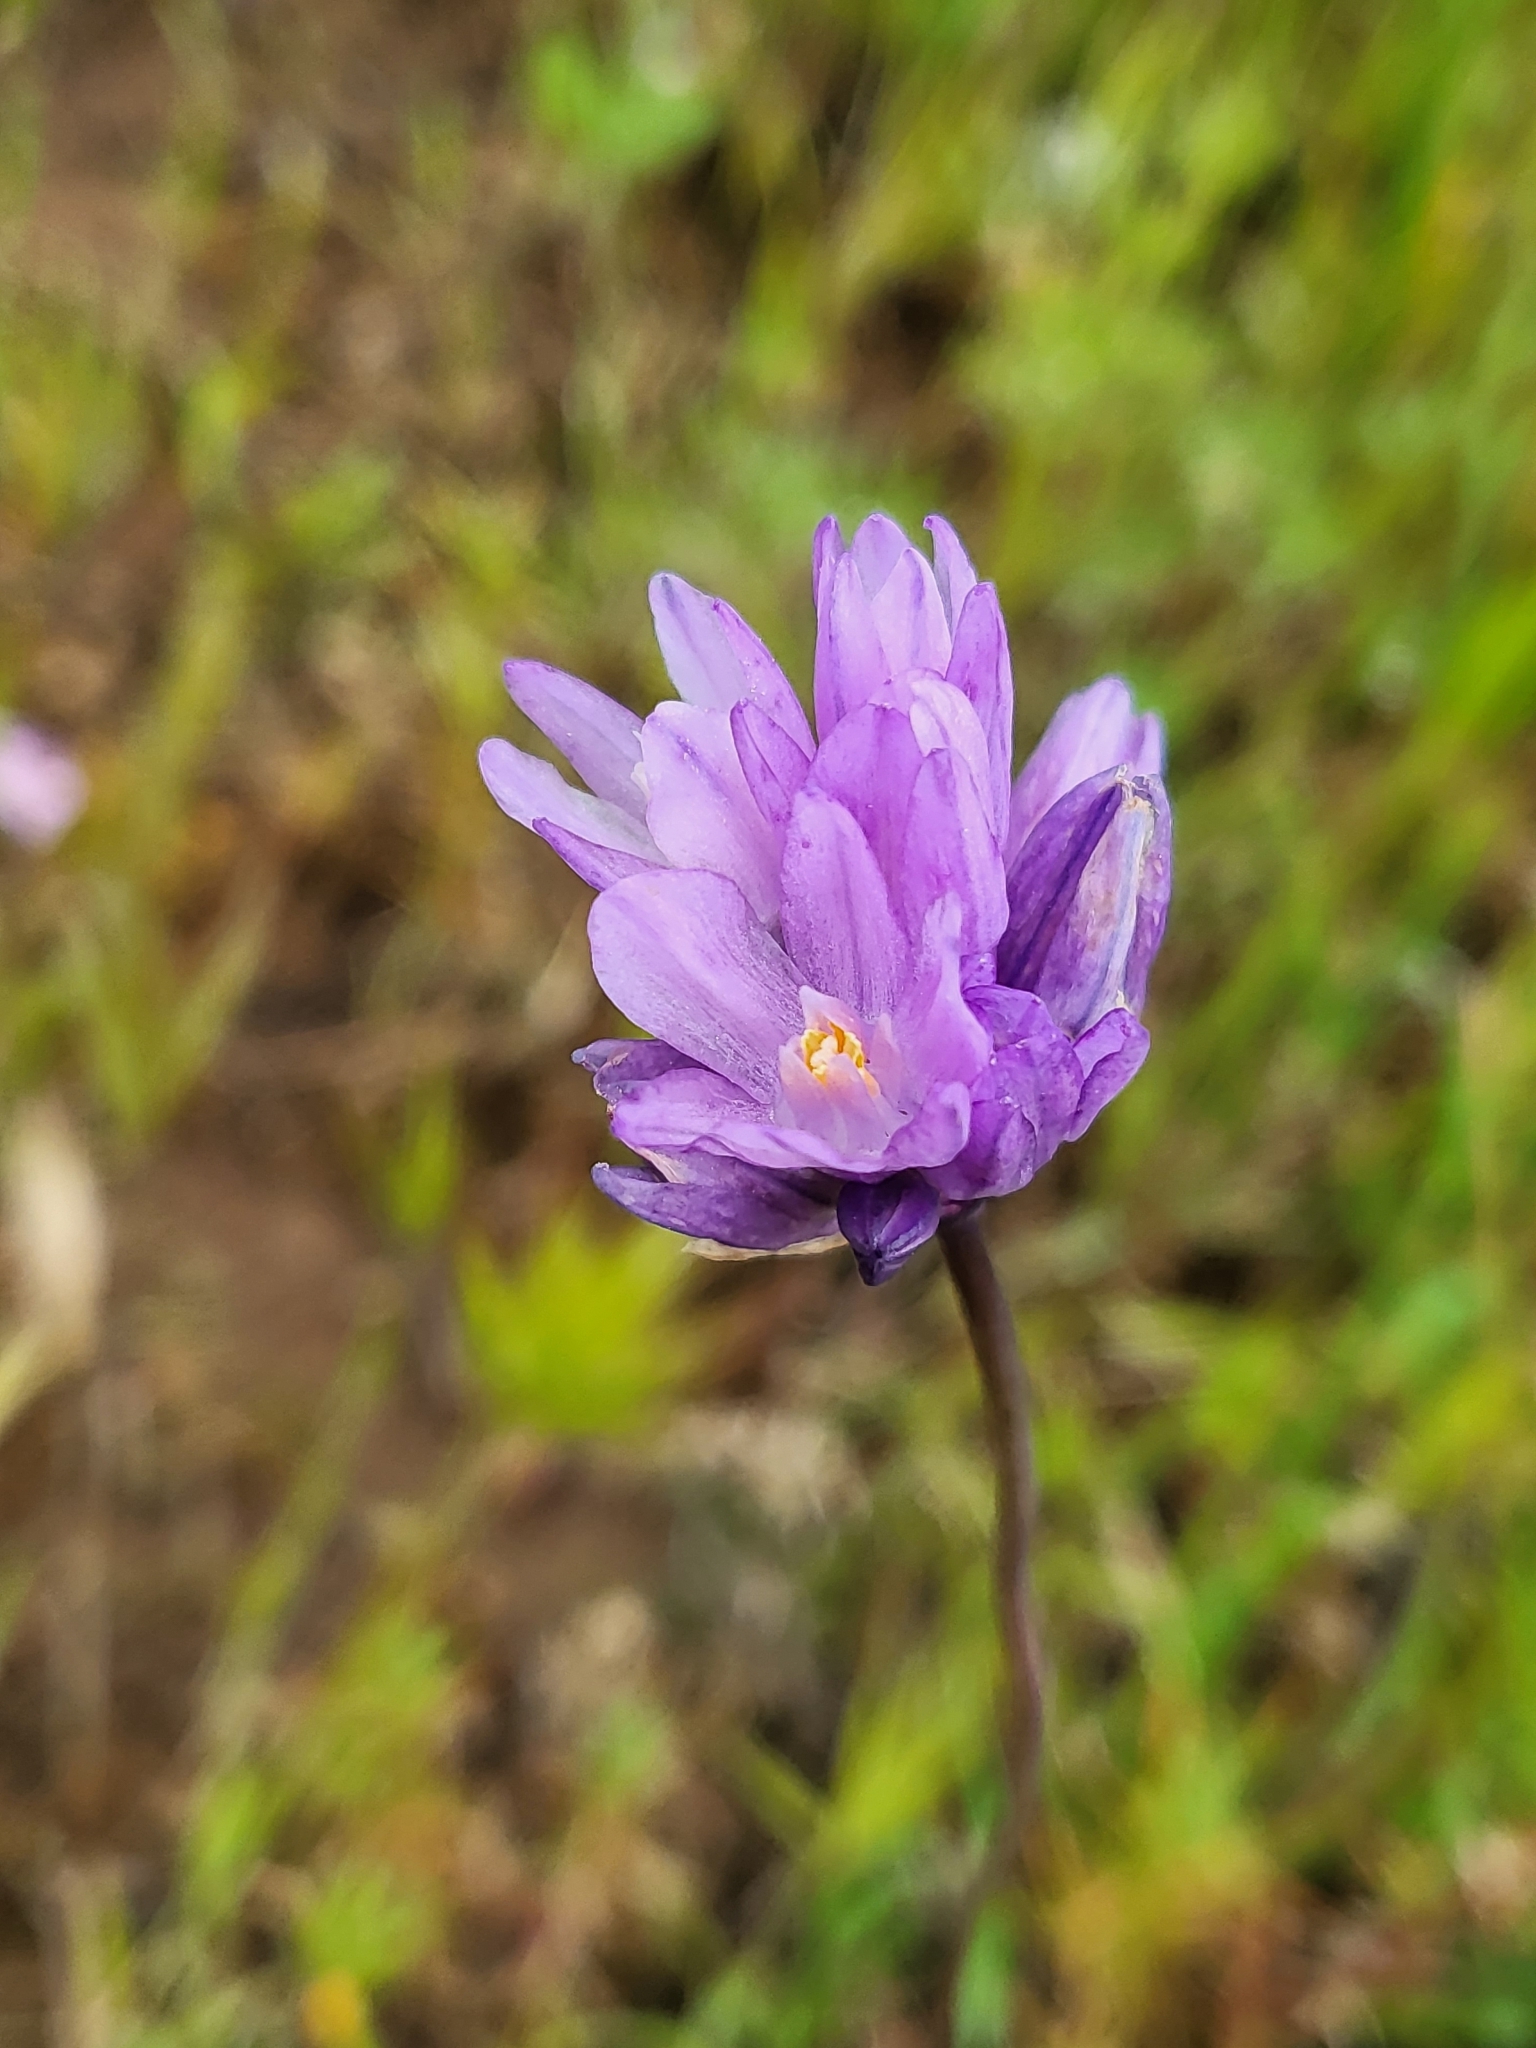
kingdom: Plantae
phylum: Tracheophyta
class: Liliopsida
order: Asparagales
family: Asparagaceae
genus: Dipterostemon
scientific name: Dipterostemon capitatus
